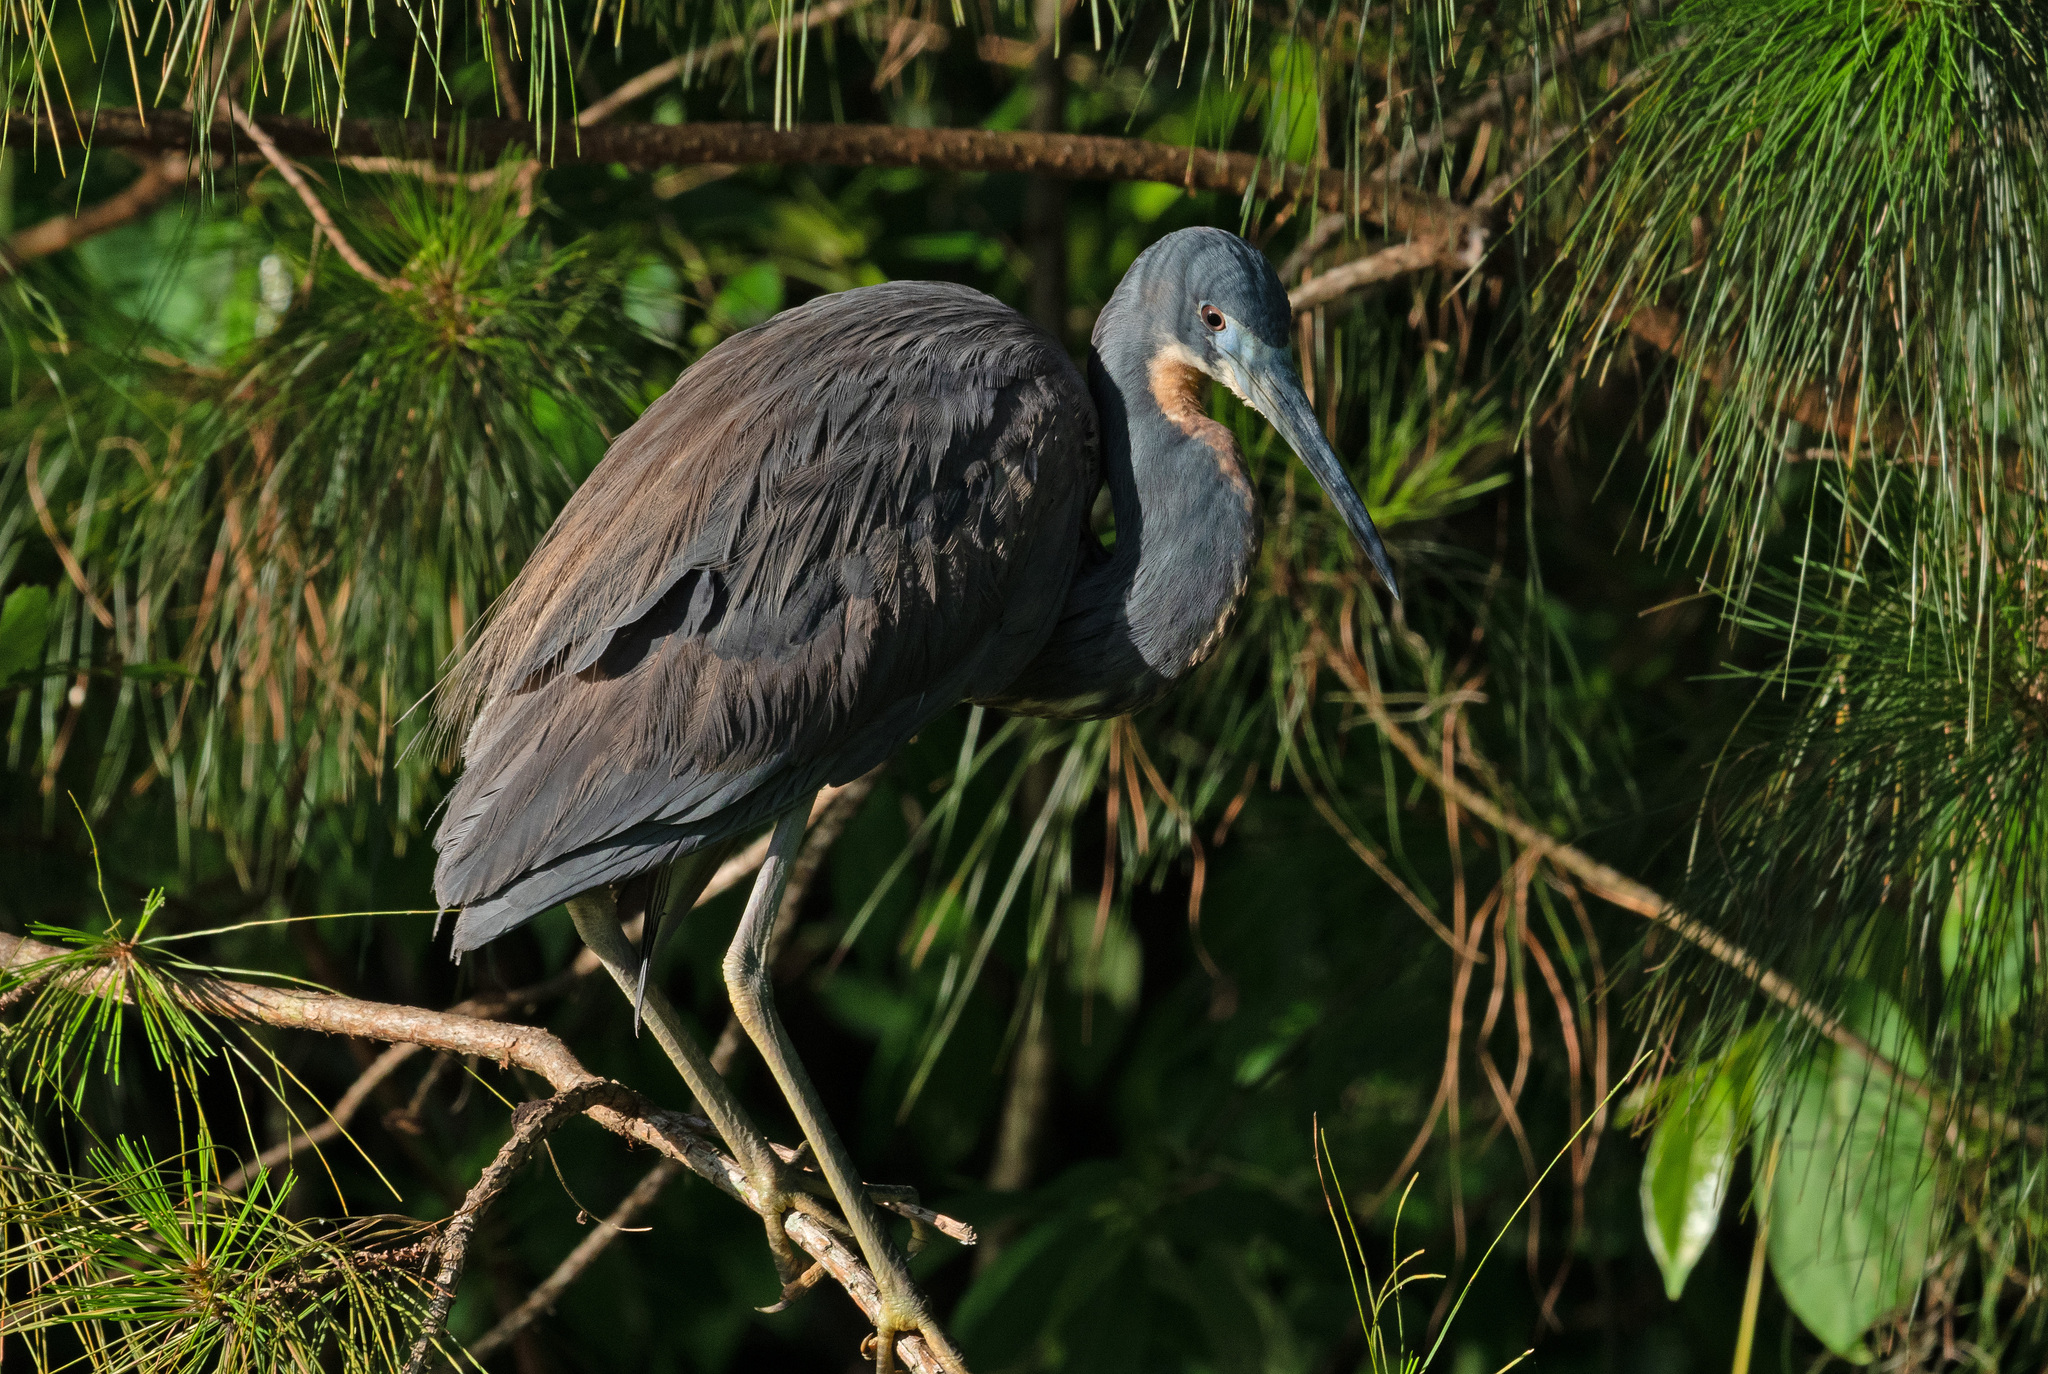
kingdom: Animalia
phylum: Chordata
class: Aves
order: Pelecaniformes
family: Ardeidae
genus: Egretta
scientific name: Egretta tricolor
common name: Tricolored heron
